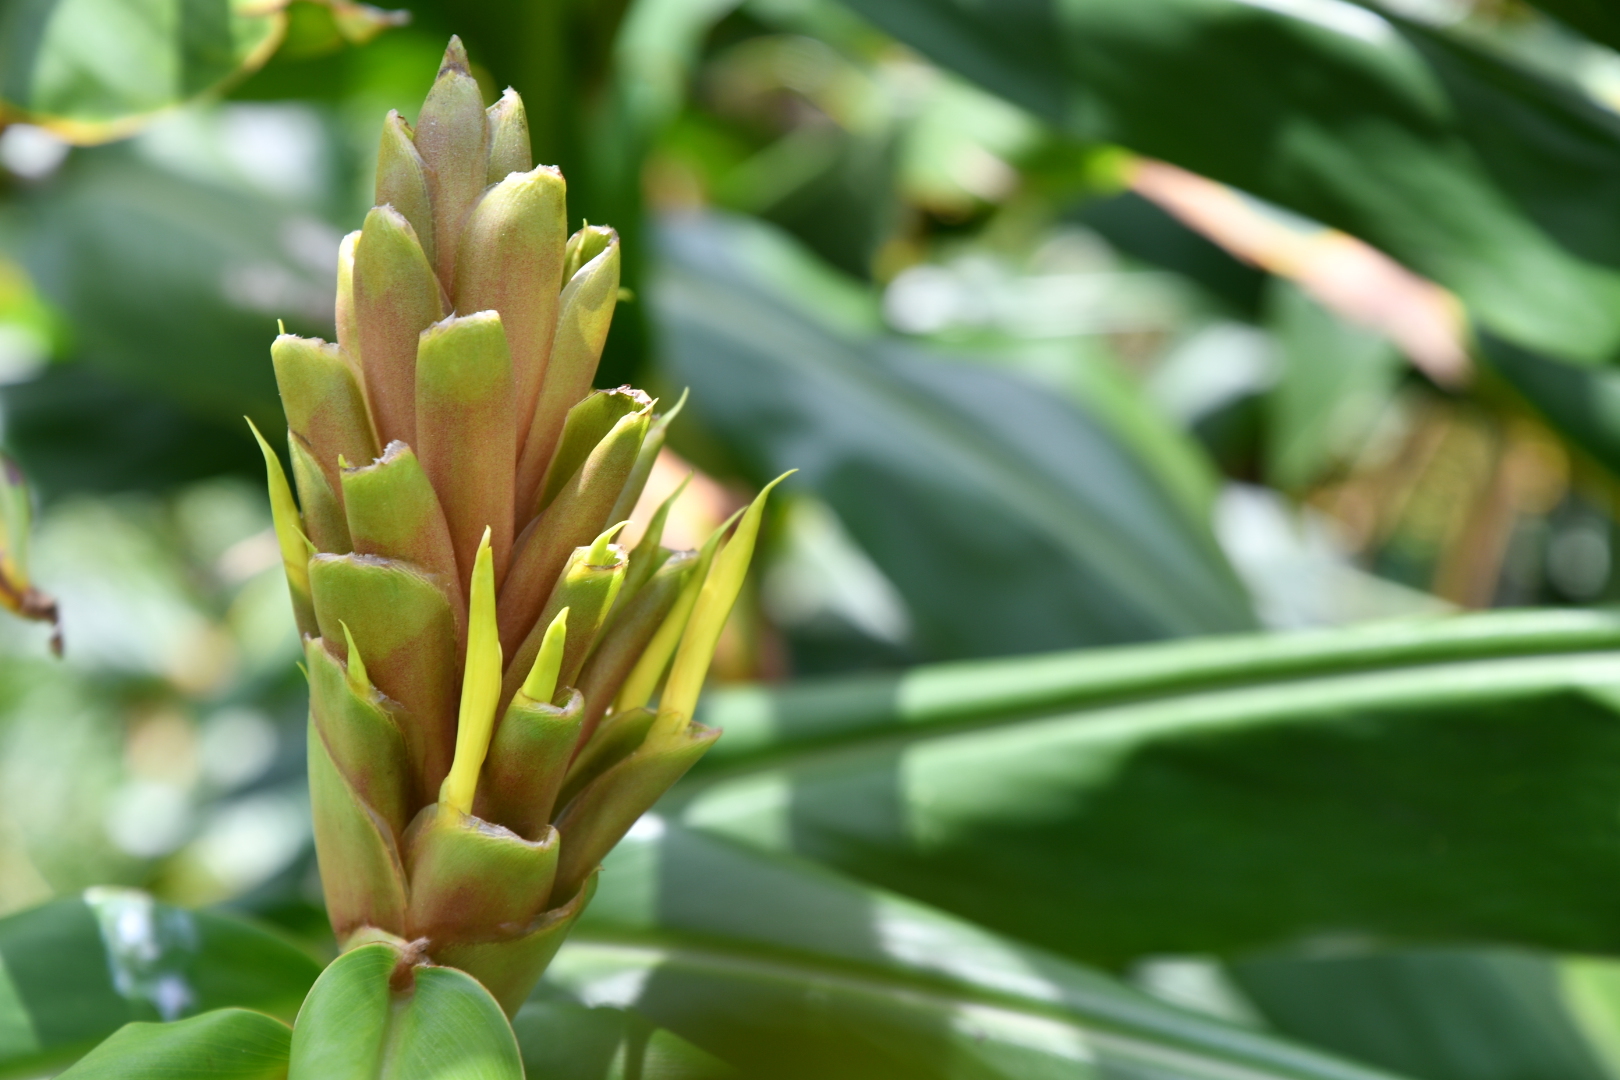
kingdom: Plantae
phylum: Tracheophyta
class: Liliopsida
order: Zingiberales
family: Zingiberaceae
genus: Hedychium
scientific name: Hedychium flavescens
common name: Yellow ginger
